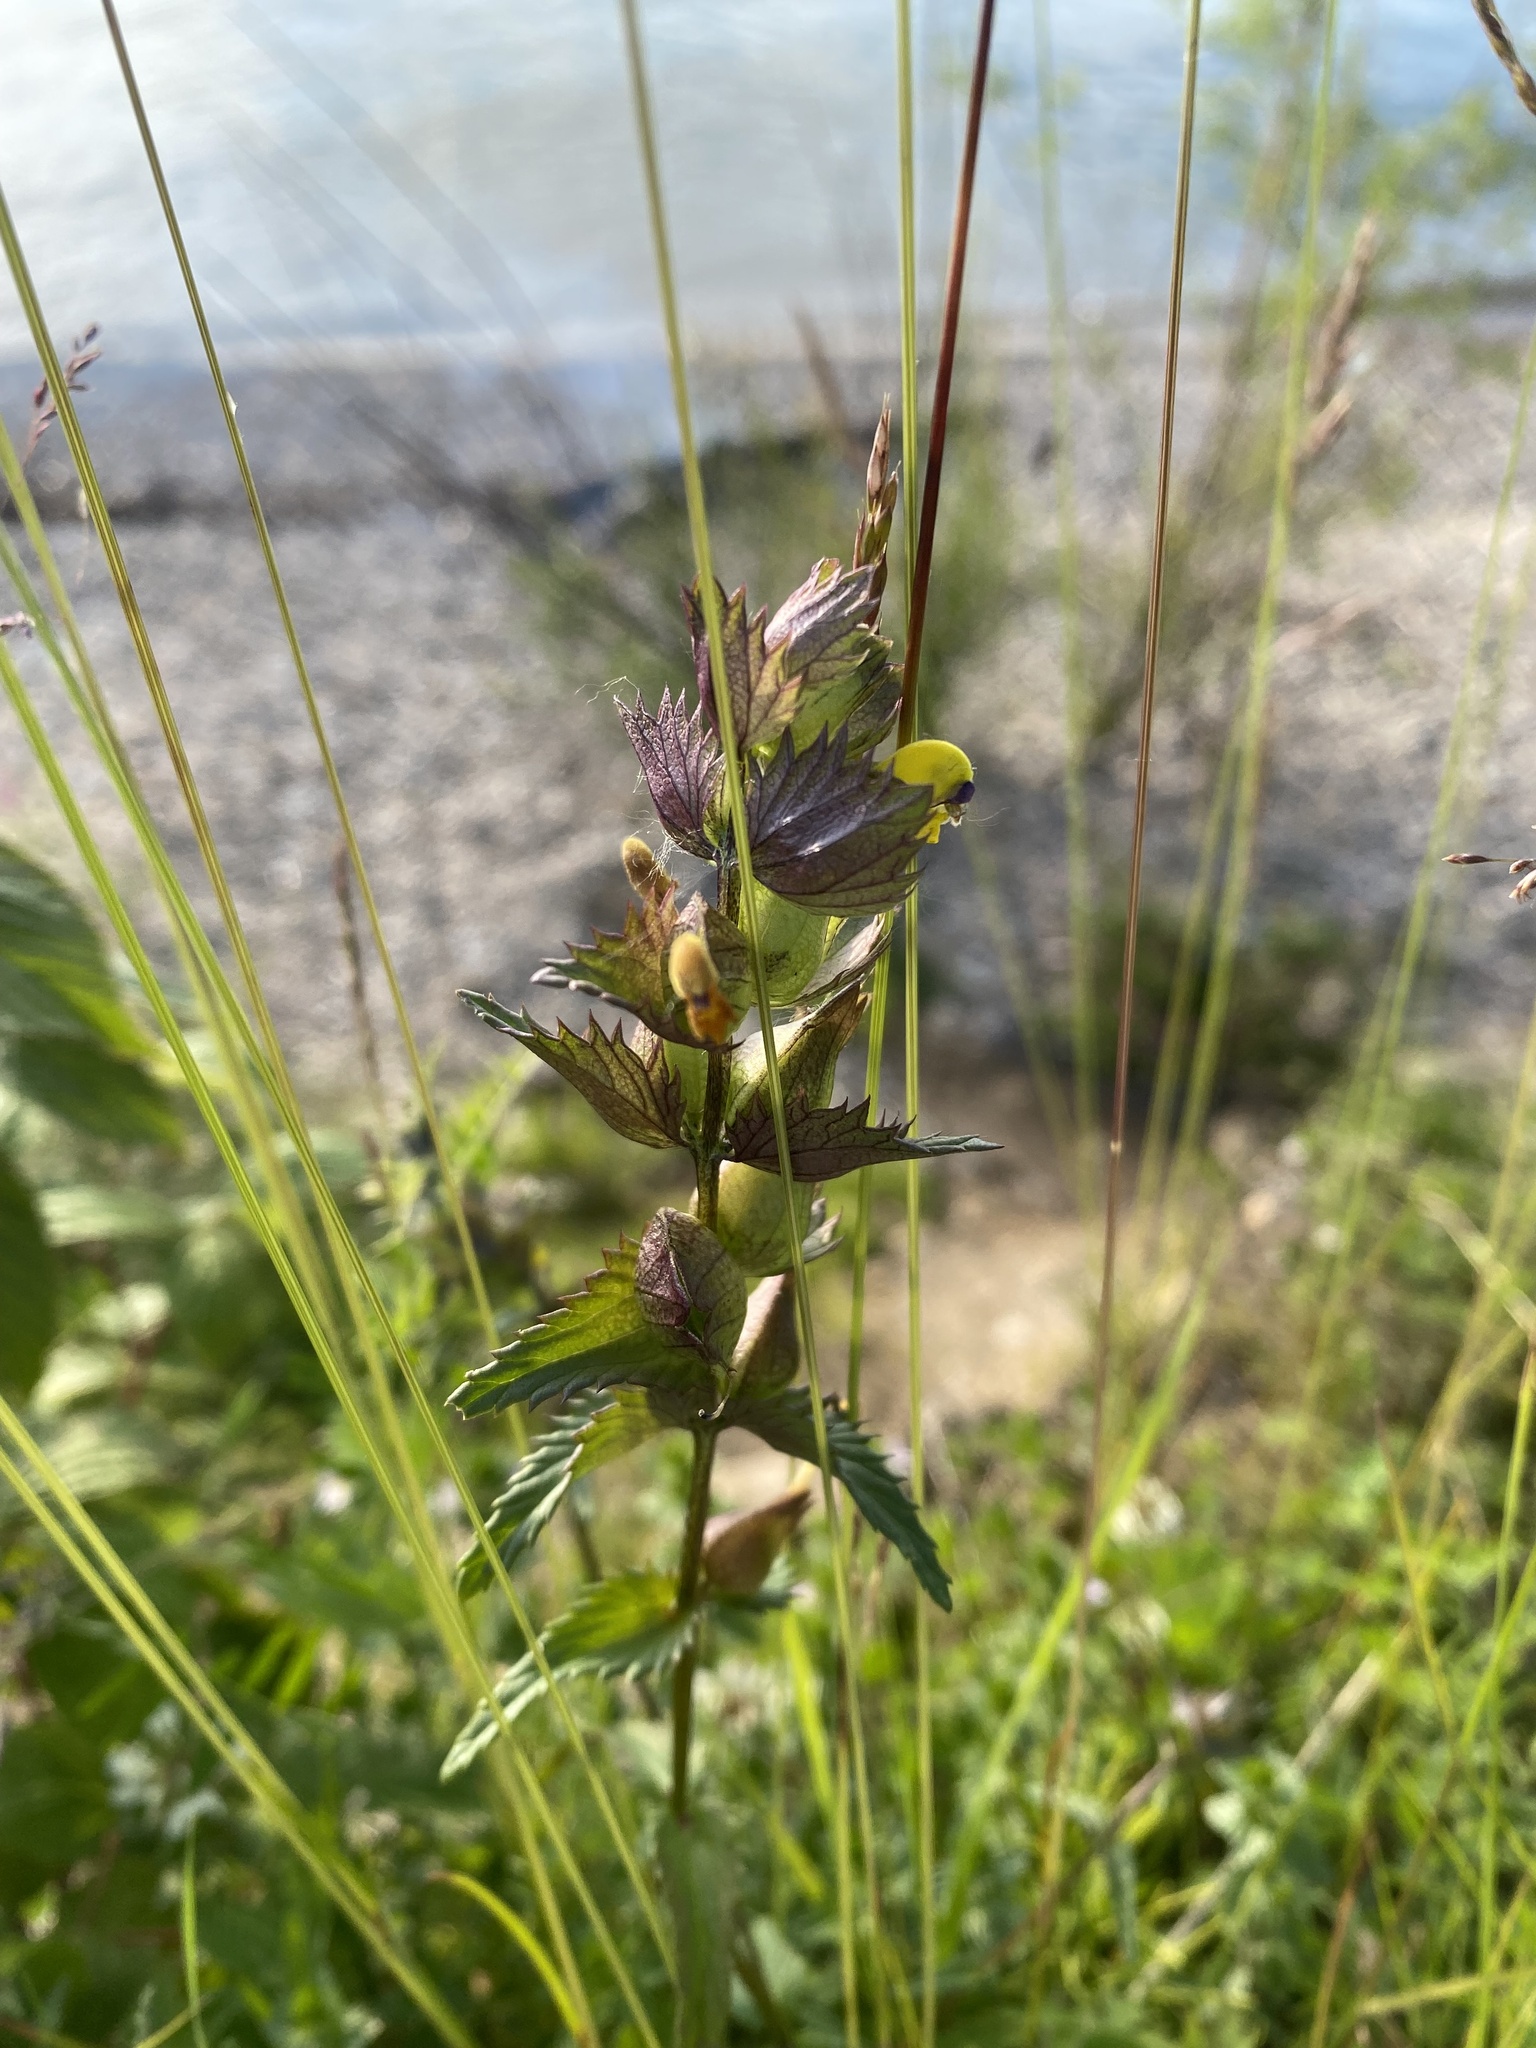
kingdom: Plantae
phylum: Tracheophyta
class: Magnoliopsida
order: Lamiales
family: Orobanchaceae
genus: Rhinanthus
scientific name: Rhinanthus minor
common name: Yellow-rattle
